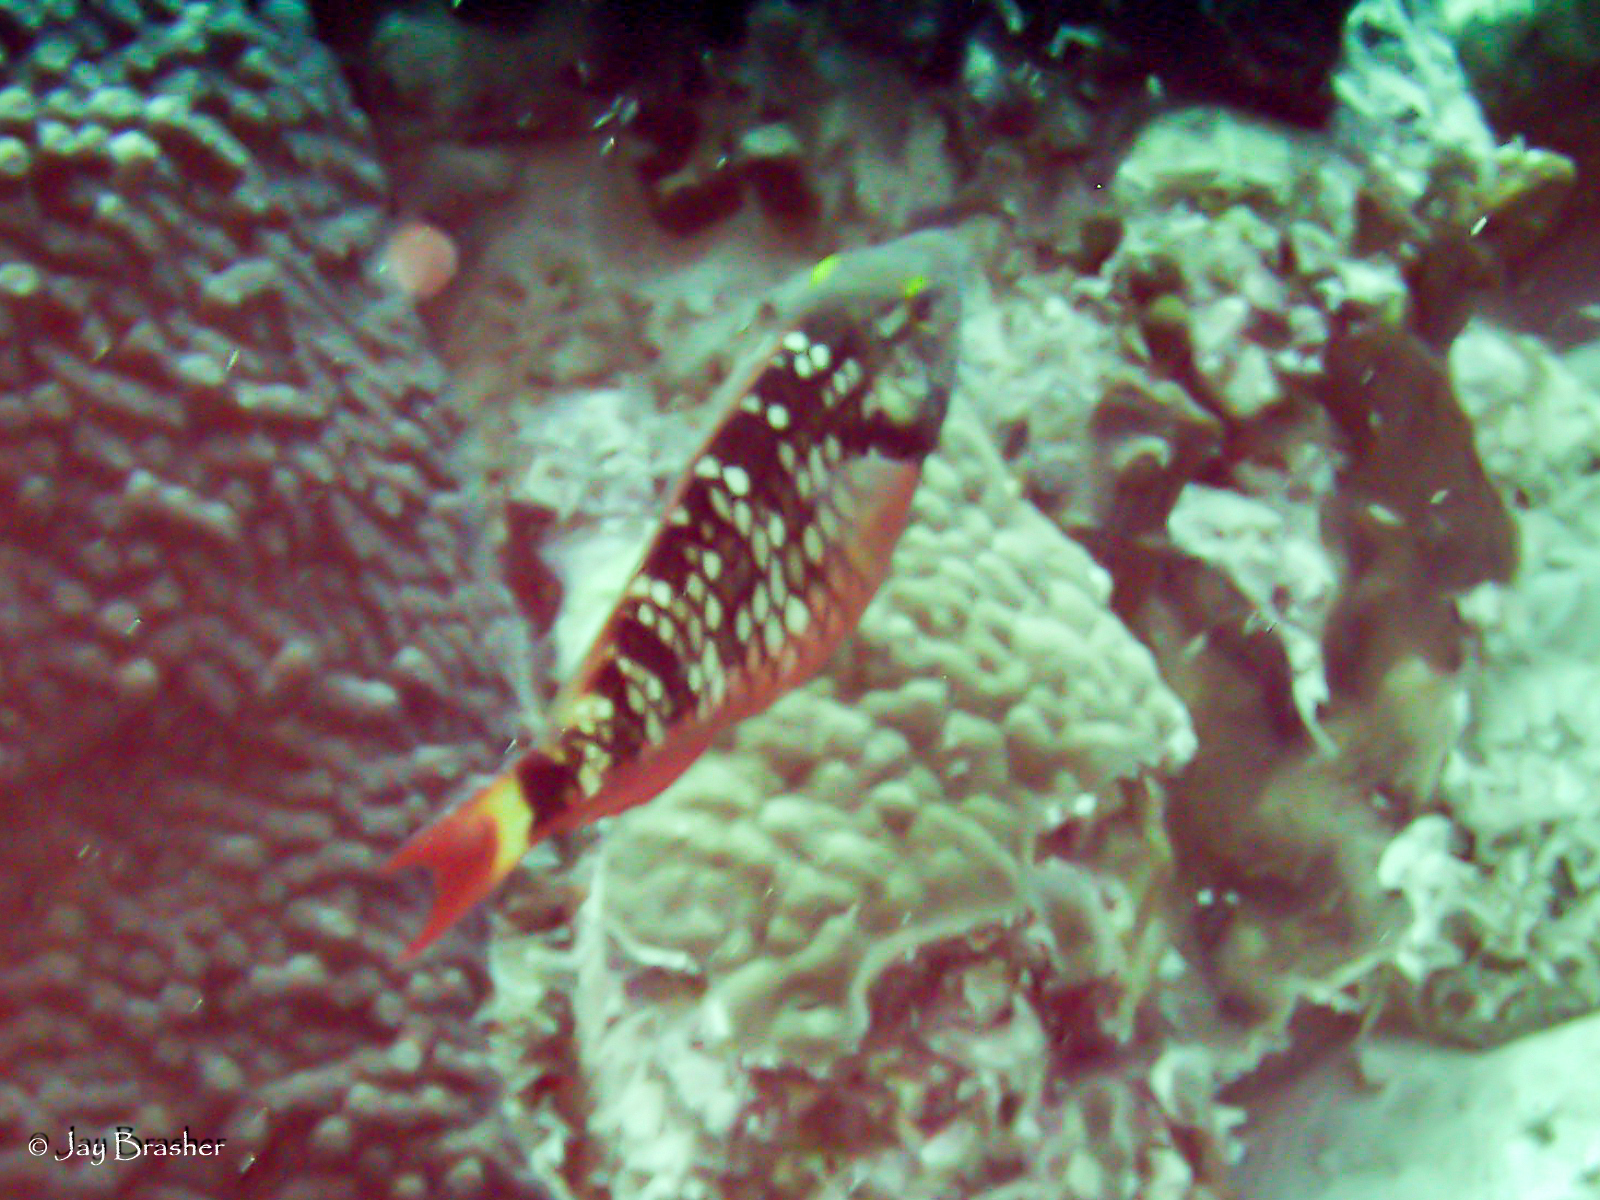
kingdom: Animalia
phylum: Chordata
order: Perciformes
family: Scaridae
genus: Sparisoma
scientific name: Sparisoma viride
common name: Stoplight parrotfish
